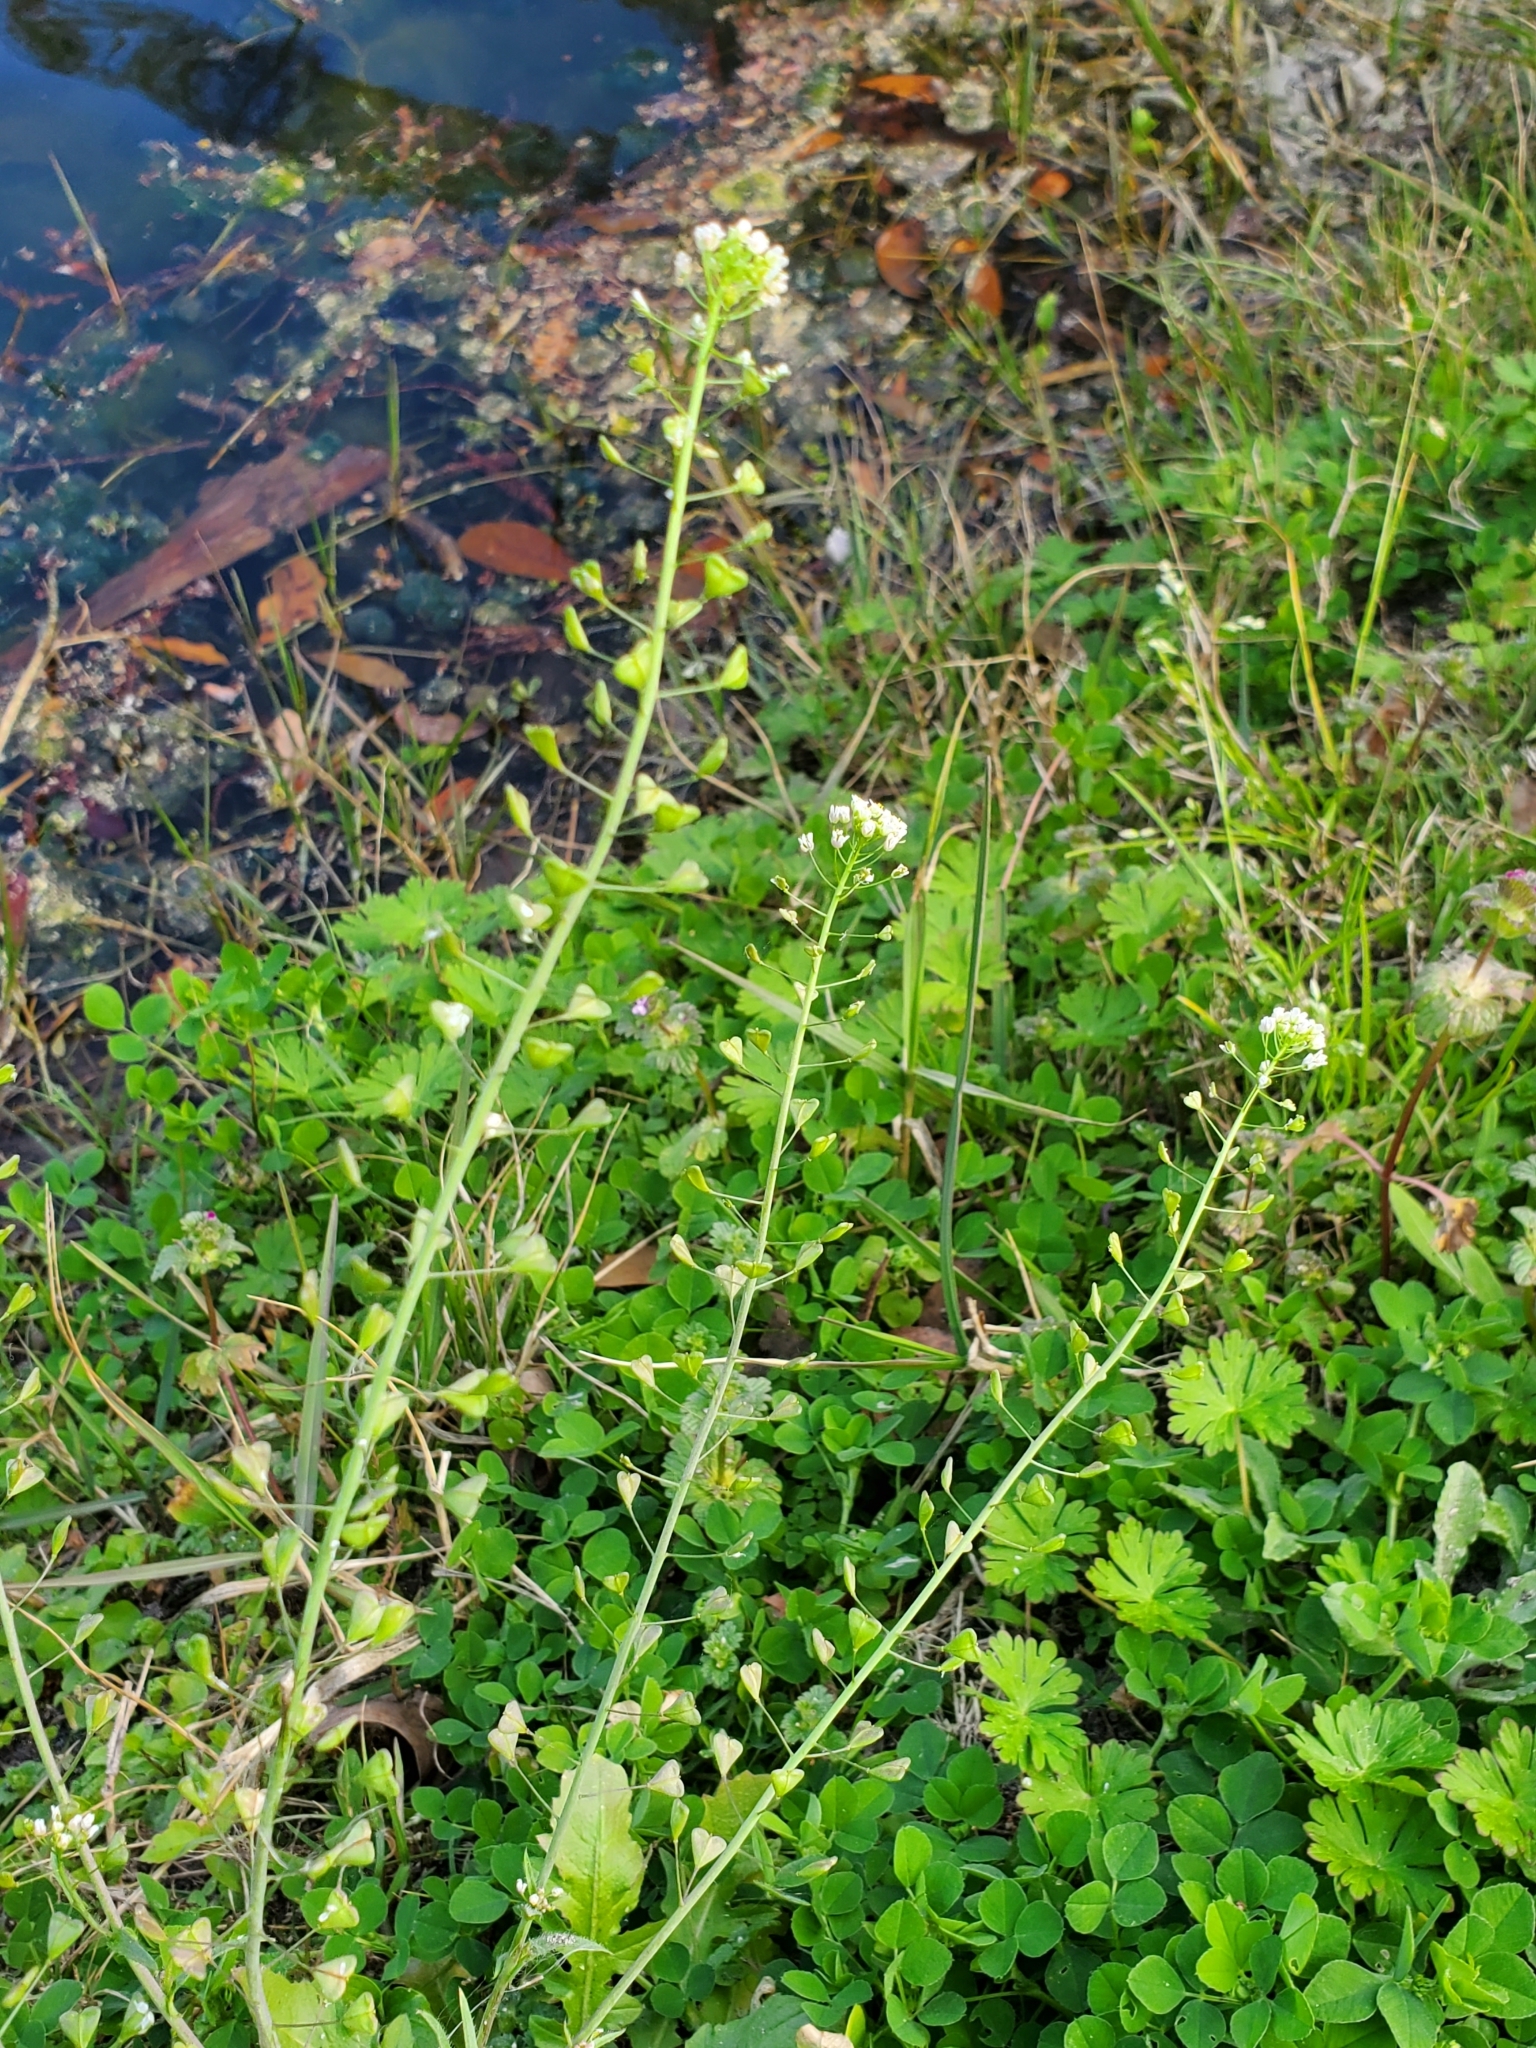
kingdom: Plantae
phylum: Tracheophyta
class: Magnoliopsida
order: Brassicales
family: Brassicaceae
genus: Capsella
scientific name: Capsella bursa-pastoris
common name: Shepherd's purse
